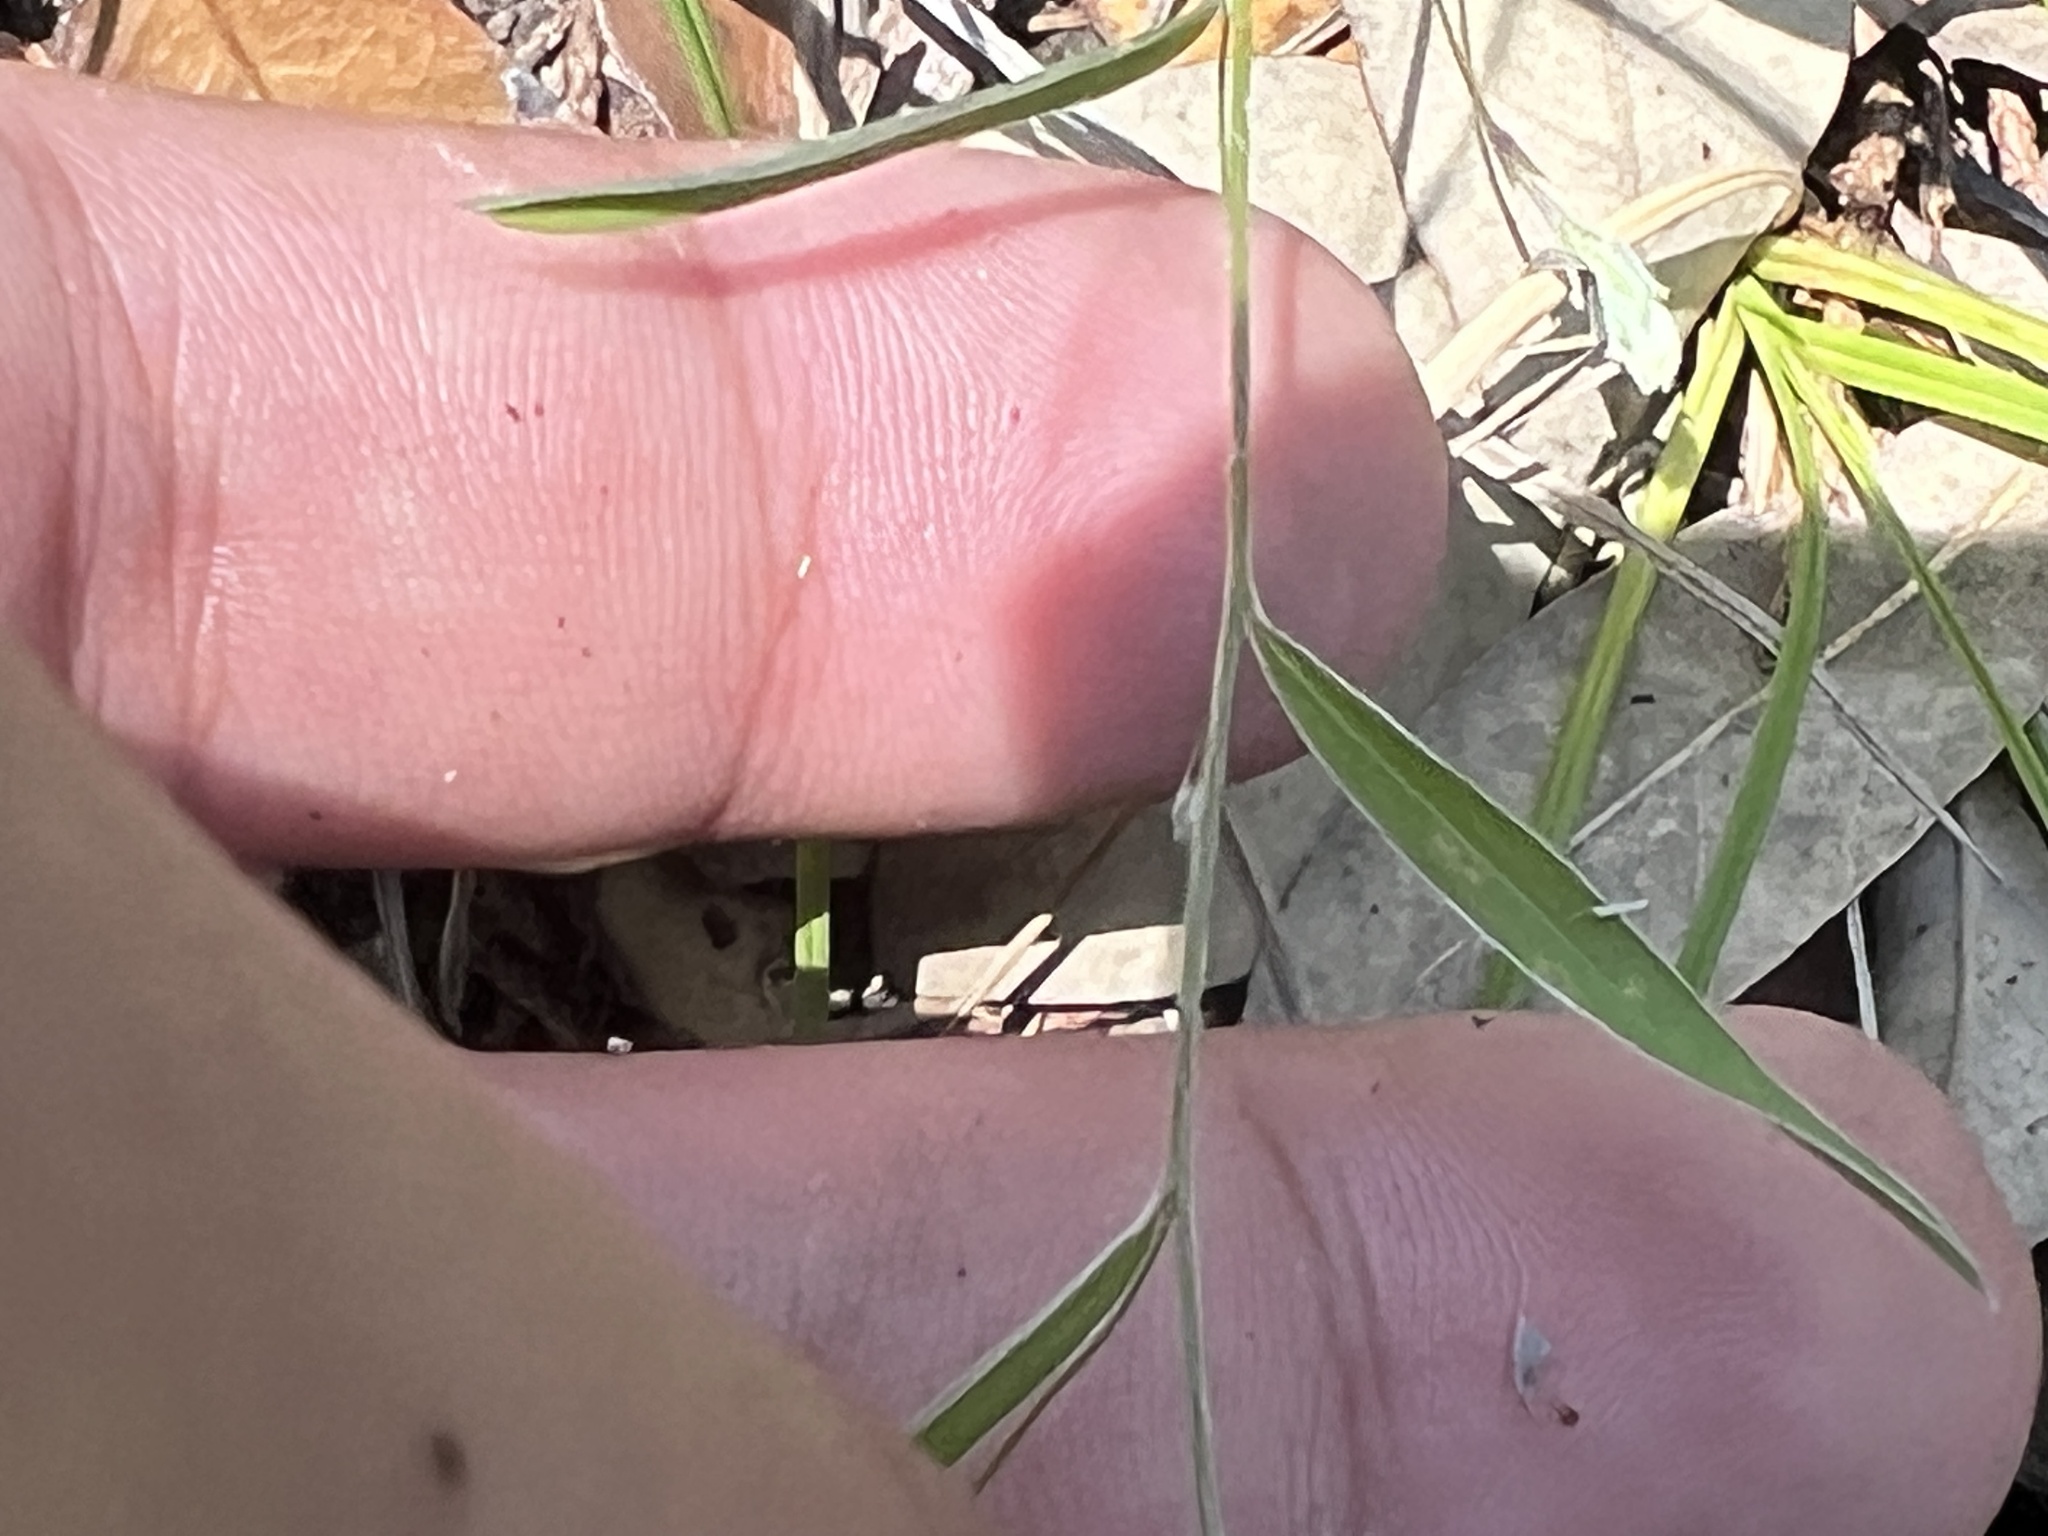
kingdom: Plantae
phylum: Tracheophyta
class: Magnoliopsida
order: Solanales
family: Convolvulaceae
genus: Evolvulus
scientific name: Evolvulus sericeus
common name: Blue dots
